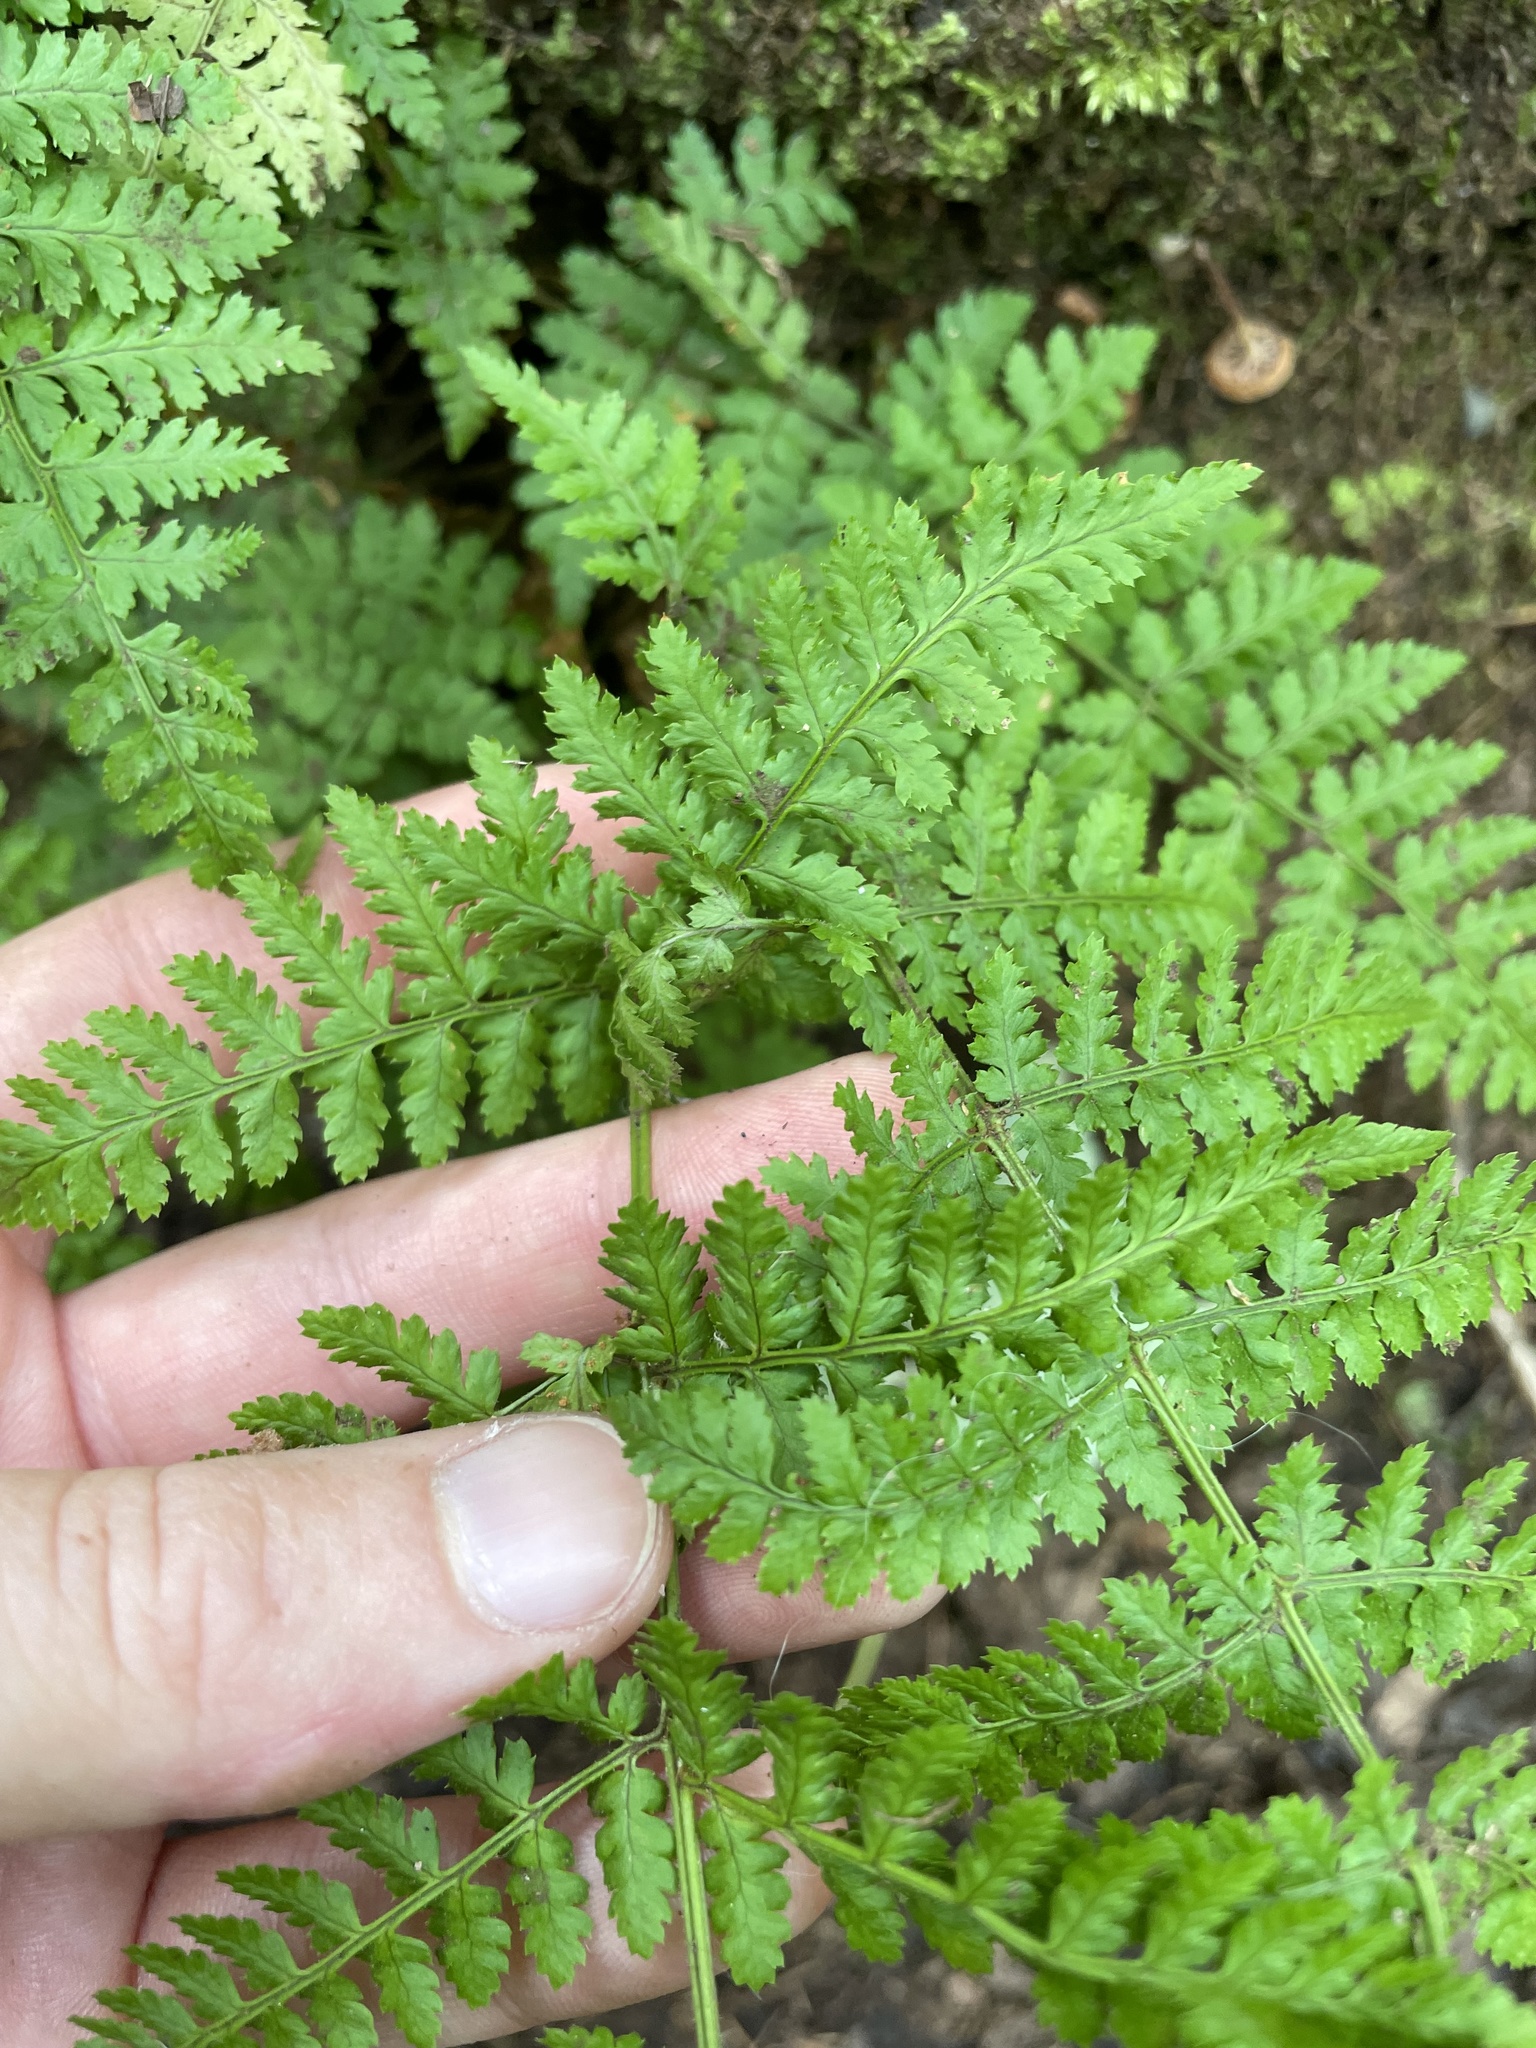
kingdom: Plantae
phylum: Tracheophyta
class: Polypodiopsida
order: Polypodiales
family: Dryopteridaceae
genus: Dryopteris
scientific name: Dryopteris intermedia
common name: Evergreen wood fern
